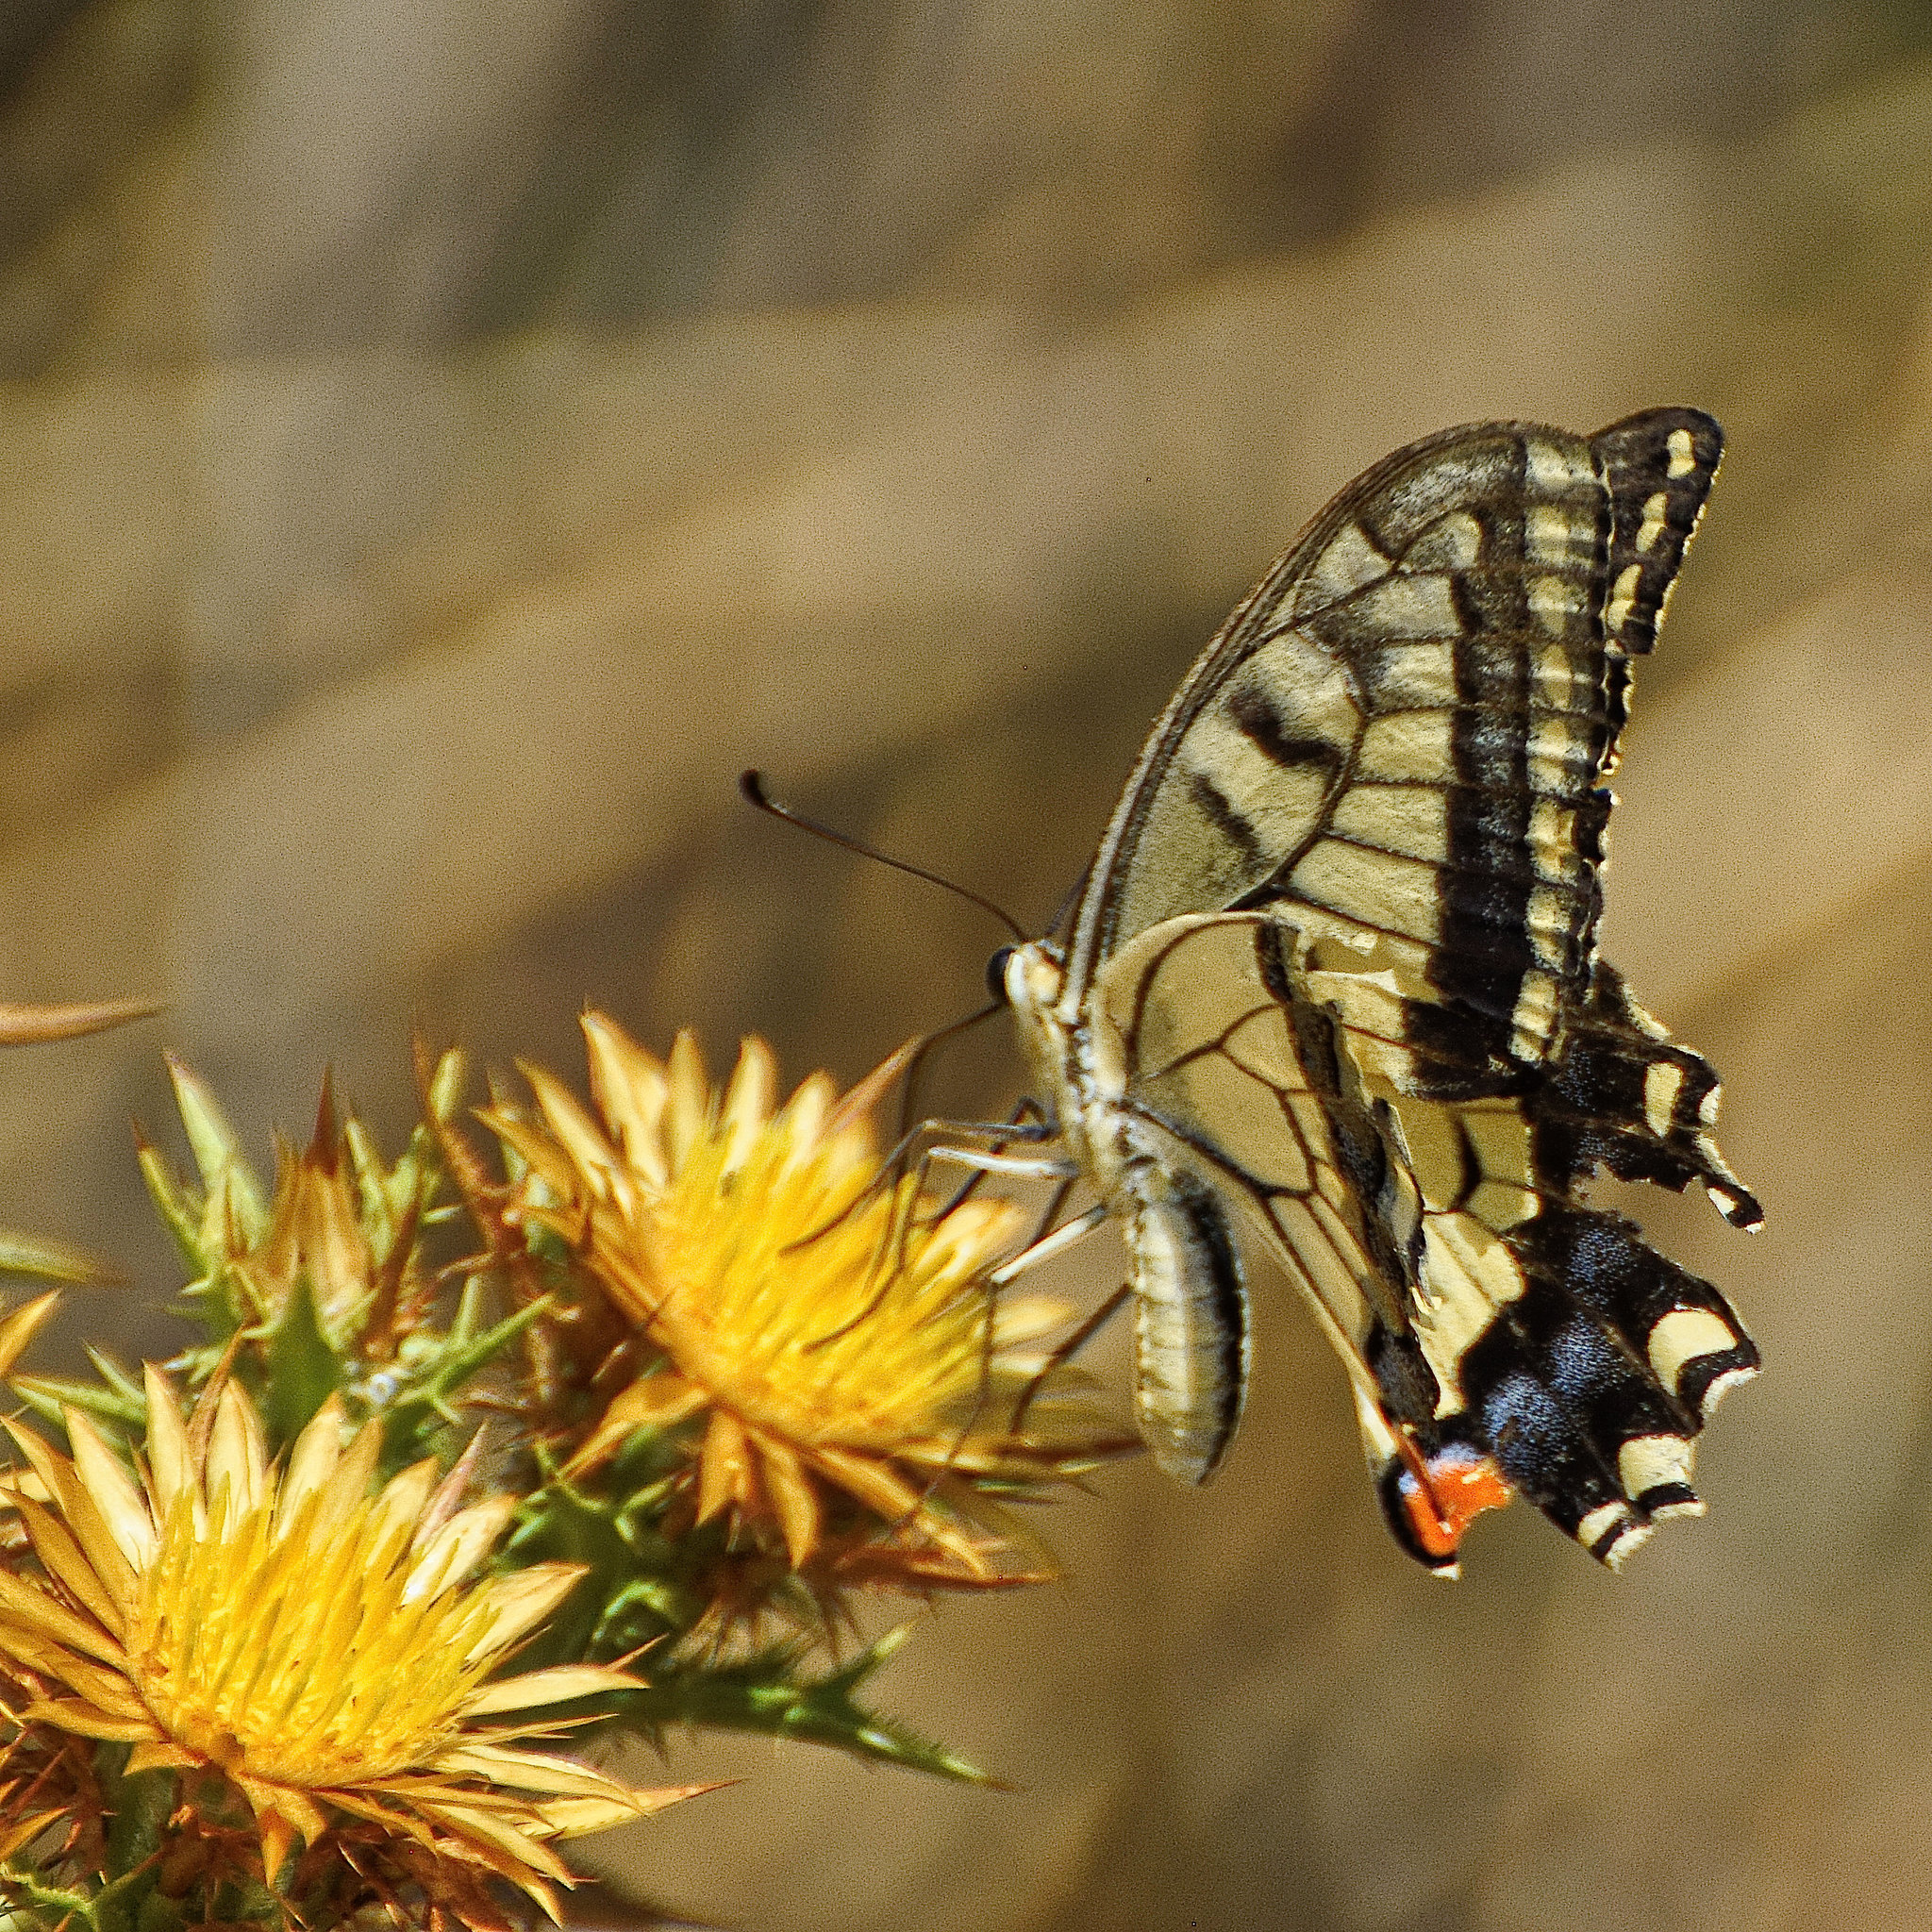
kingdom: Animalia
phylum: Arthropoda
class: Insecta
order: Lepidoptera
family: Papilionidae
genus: Papilio
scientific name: Papilio machaon
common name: Swallowtail
